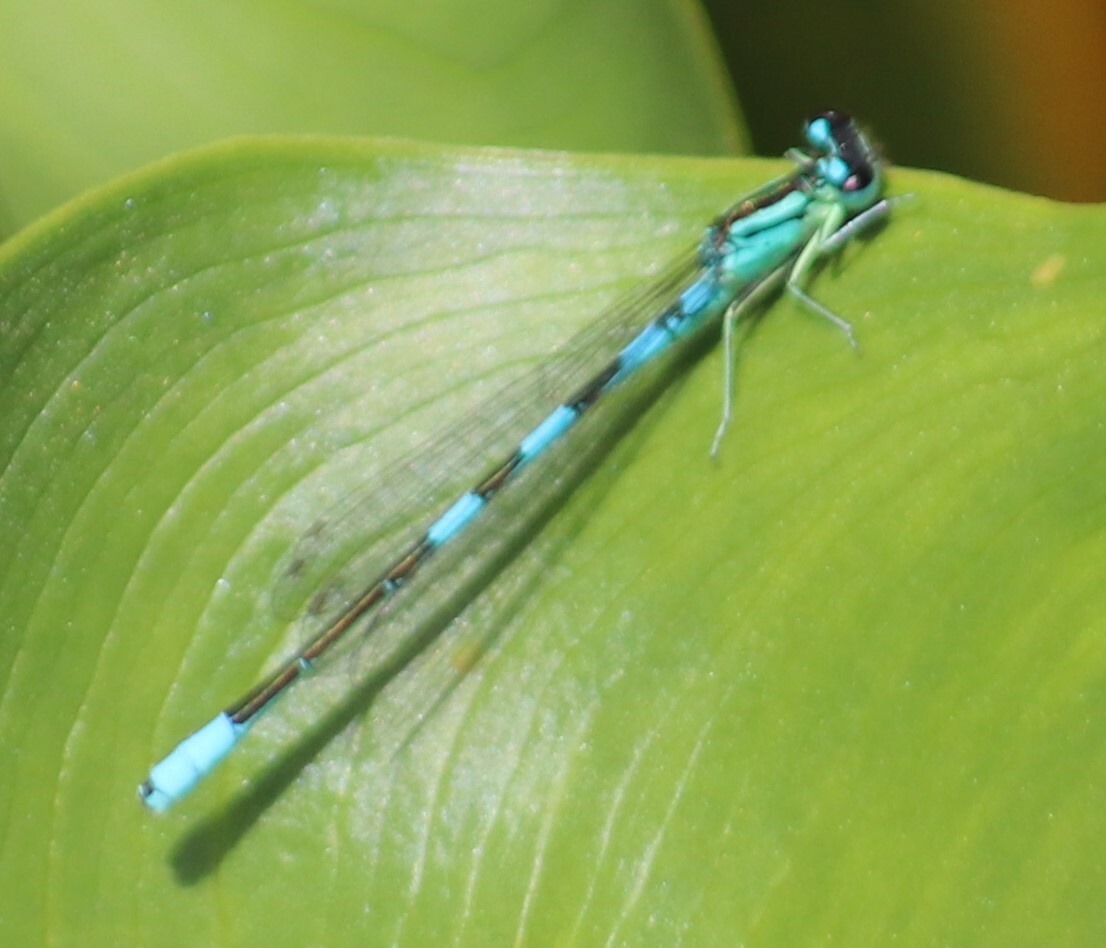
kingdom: Animalia
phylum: Arthropoda
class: Insecta
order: Odonata
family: Coenagrionidae
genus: Coenagrion
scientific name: Coenagrion resolutum
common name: Taiga bluet
